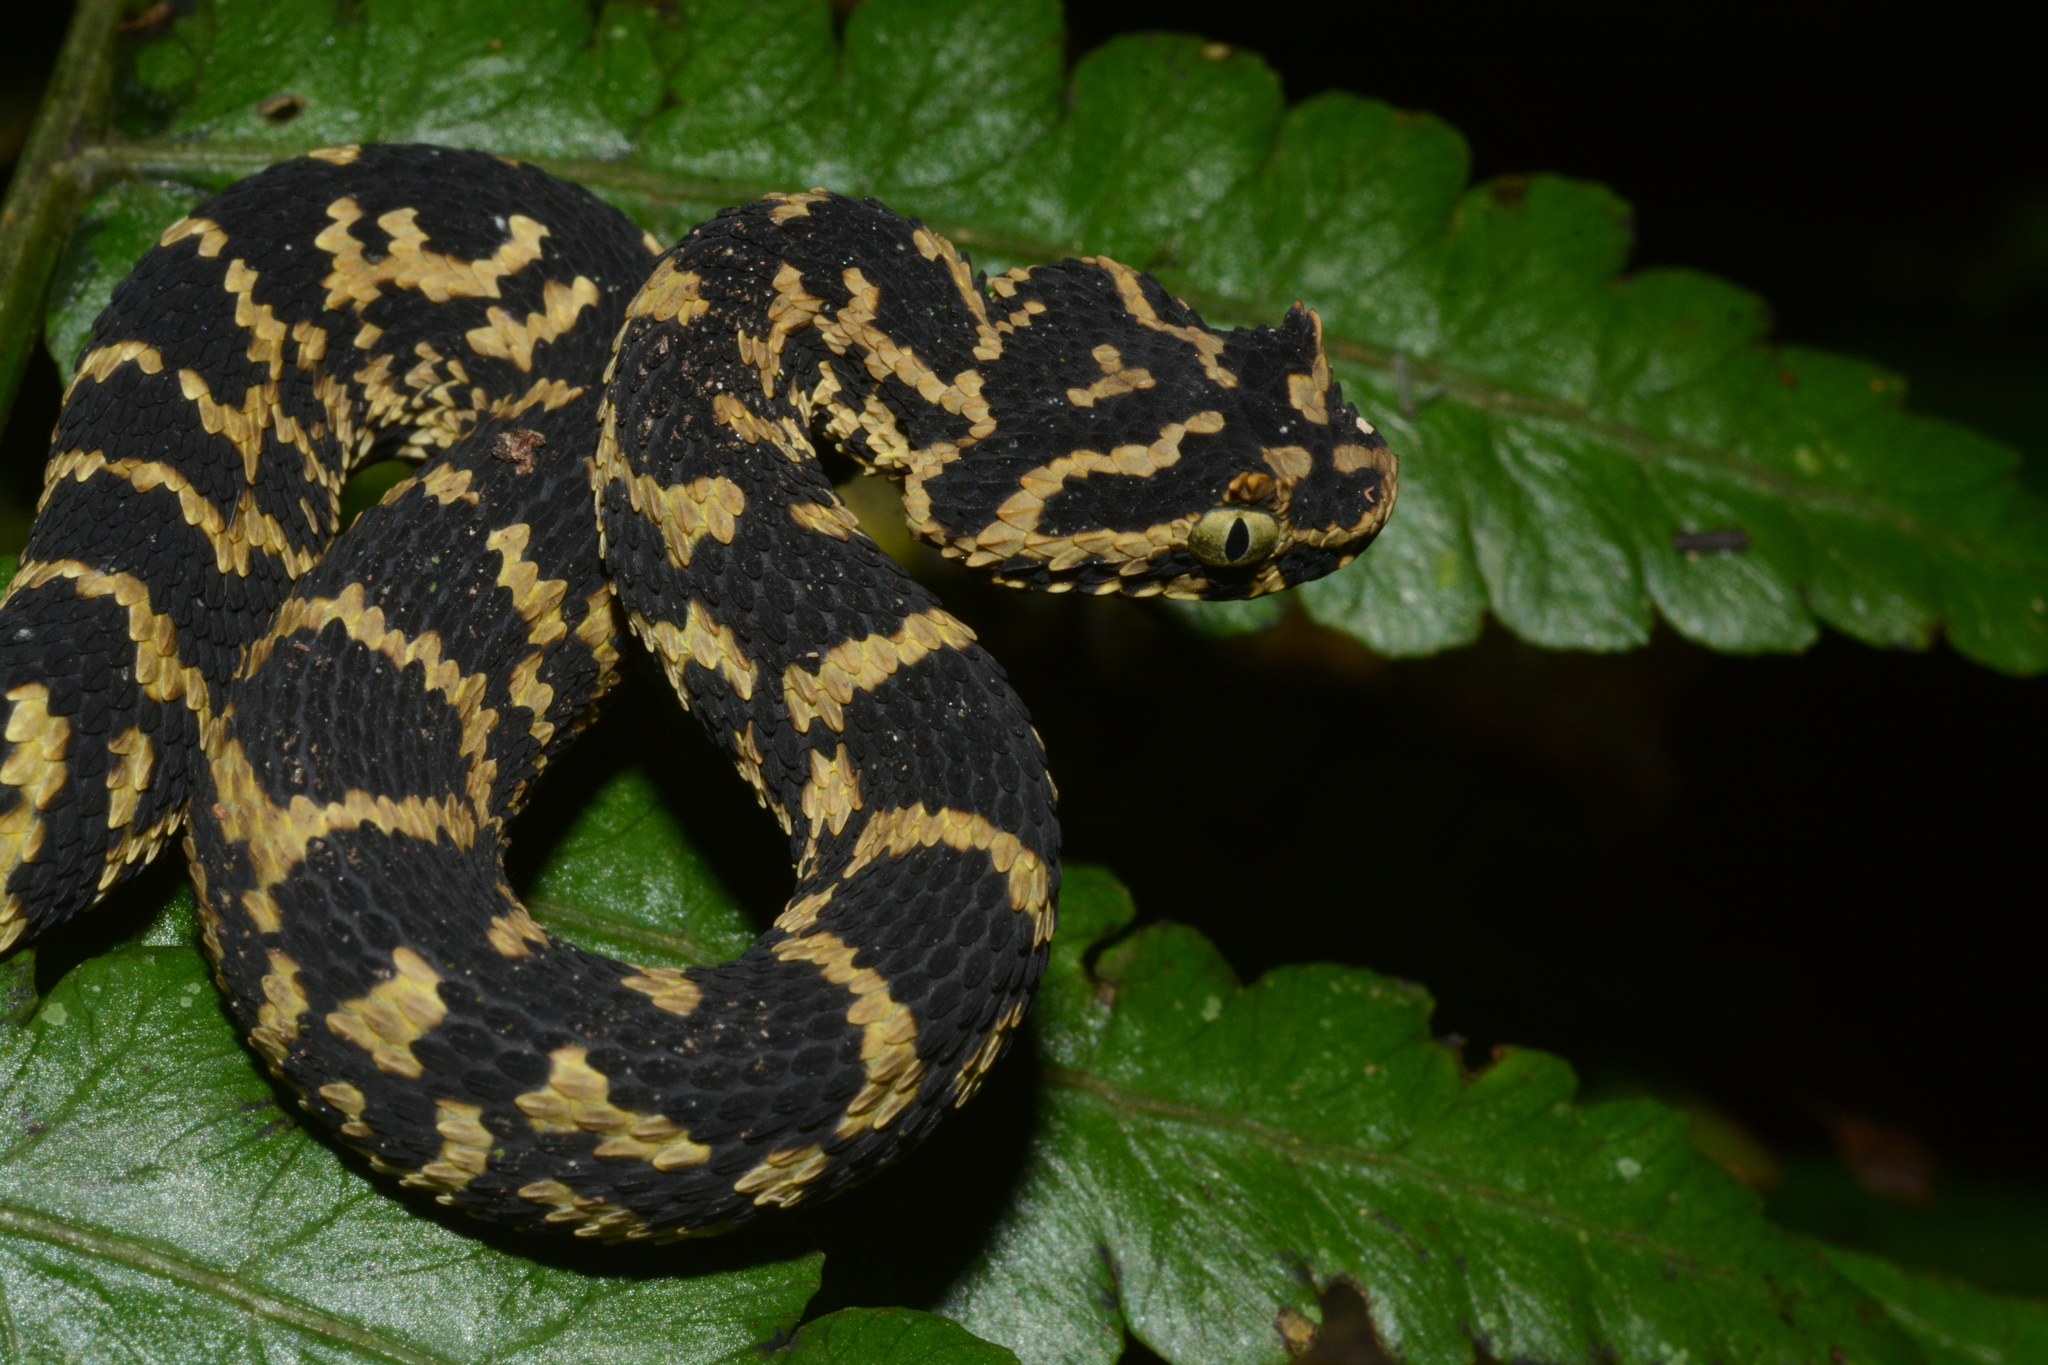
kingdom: Animalia
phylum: Chordata
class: Squamata
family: Viperidae
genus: Atheris
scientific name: Atheris ceratophora
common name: Usambara eyelash viper
